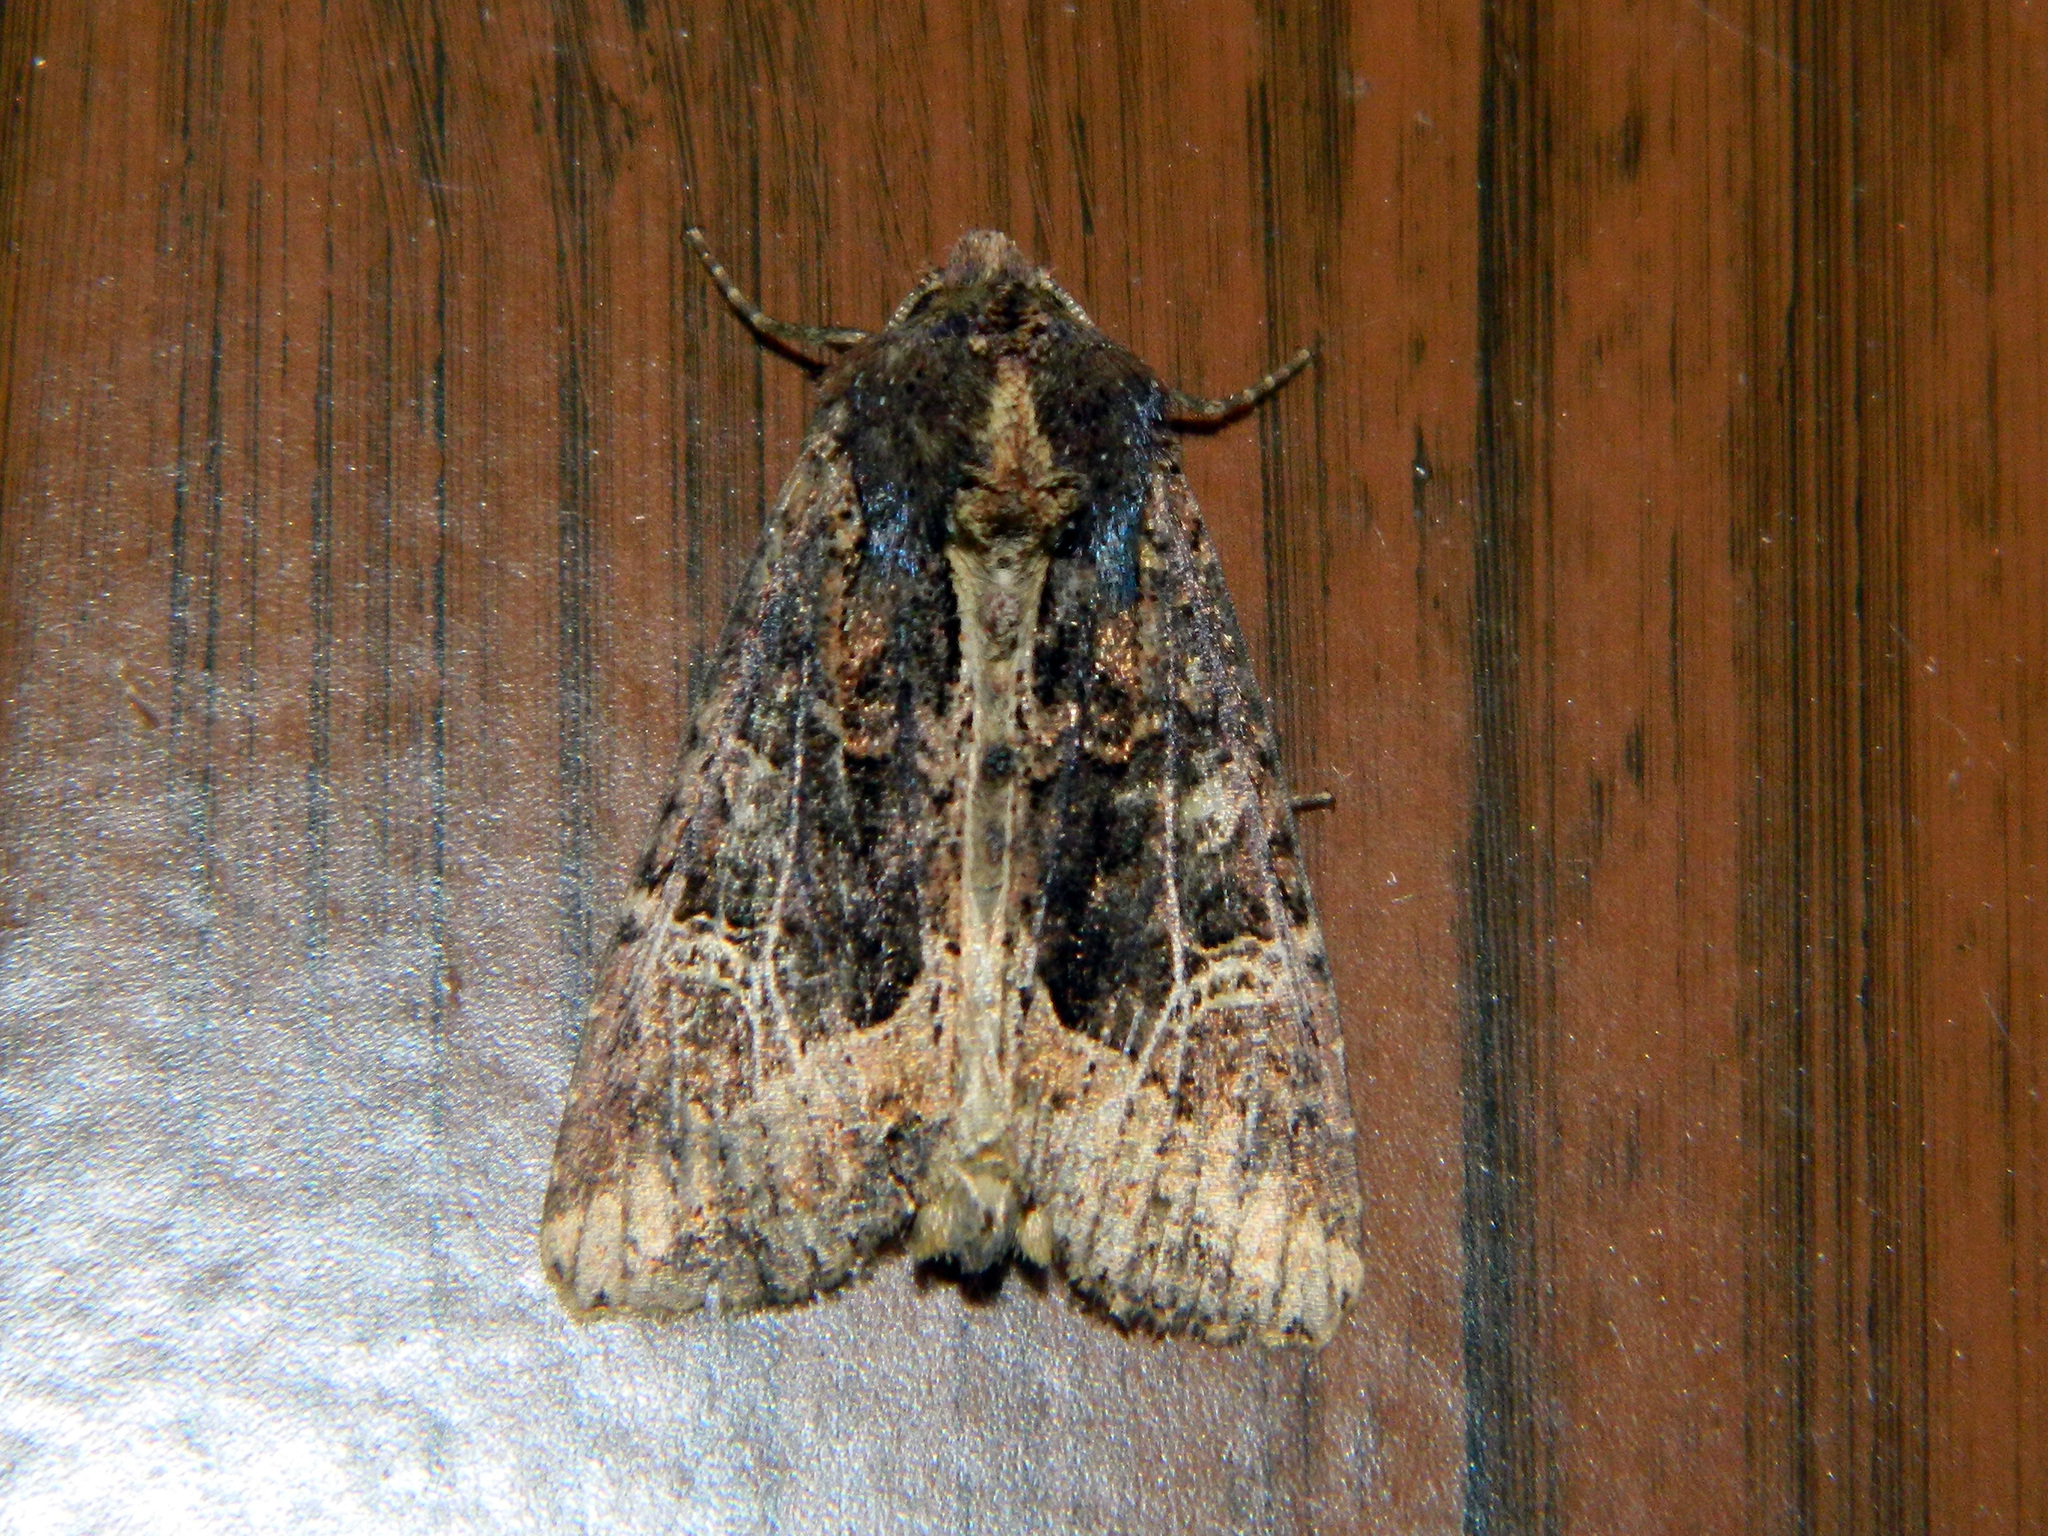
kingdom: Animalia
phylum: Arthropoda
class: Insecta
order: Lepidoptera
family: Noctuidae
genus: Helotropha
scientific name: Helotropha reniformis
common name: Kidney-spotted rustic moth
